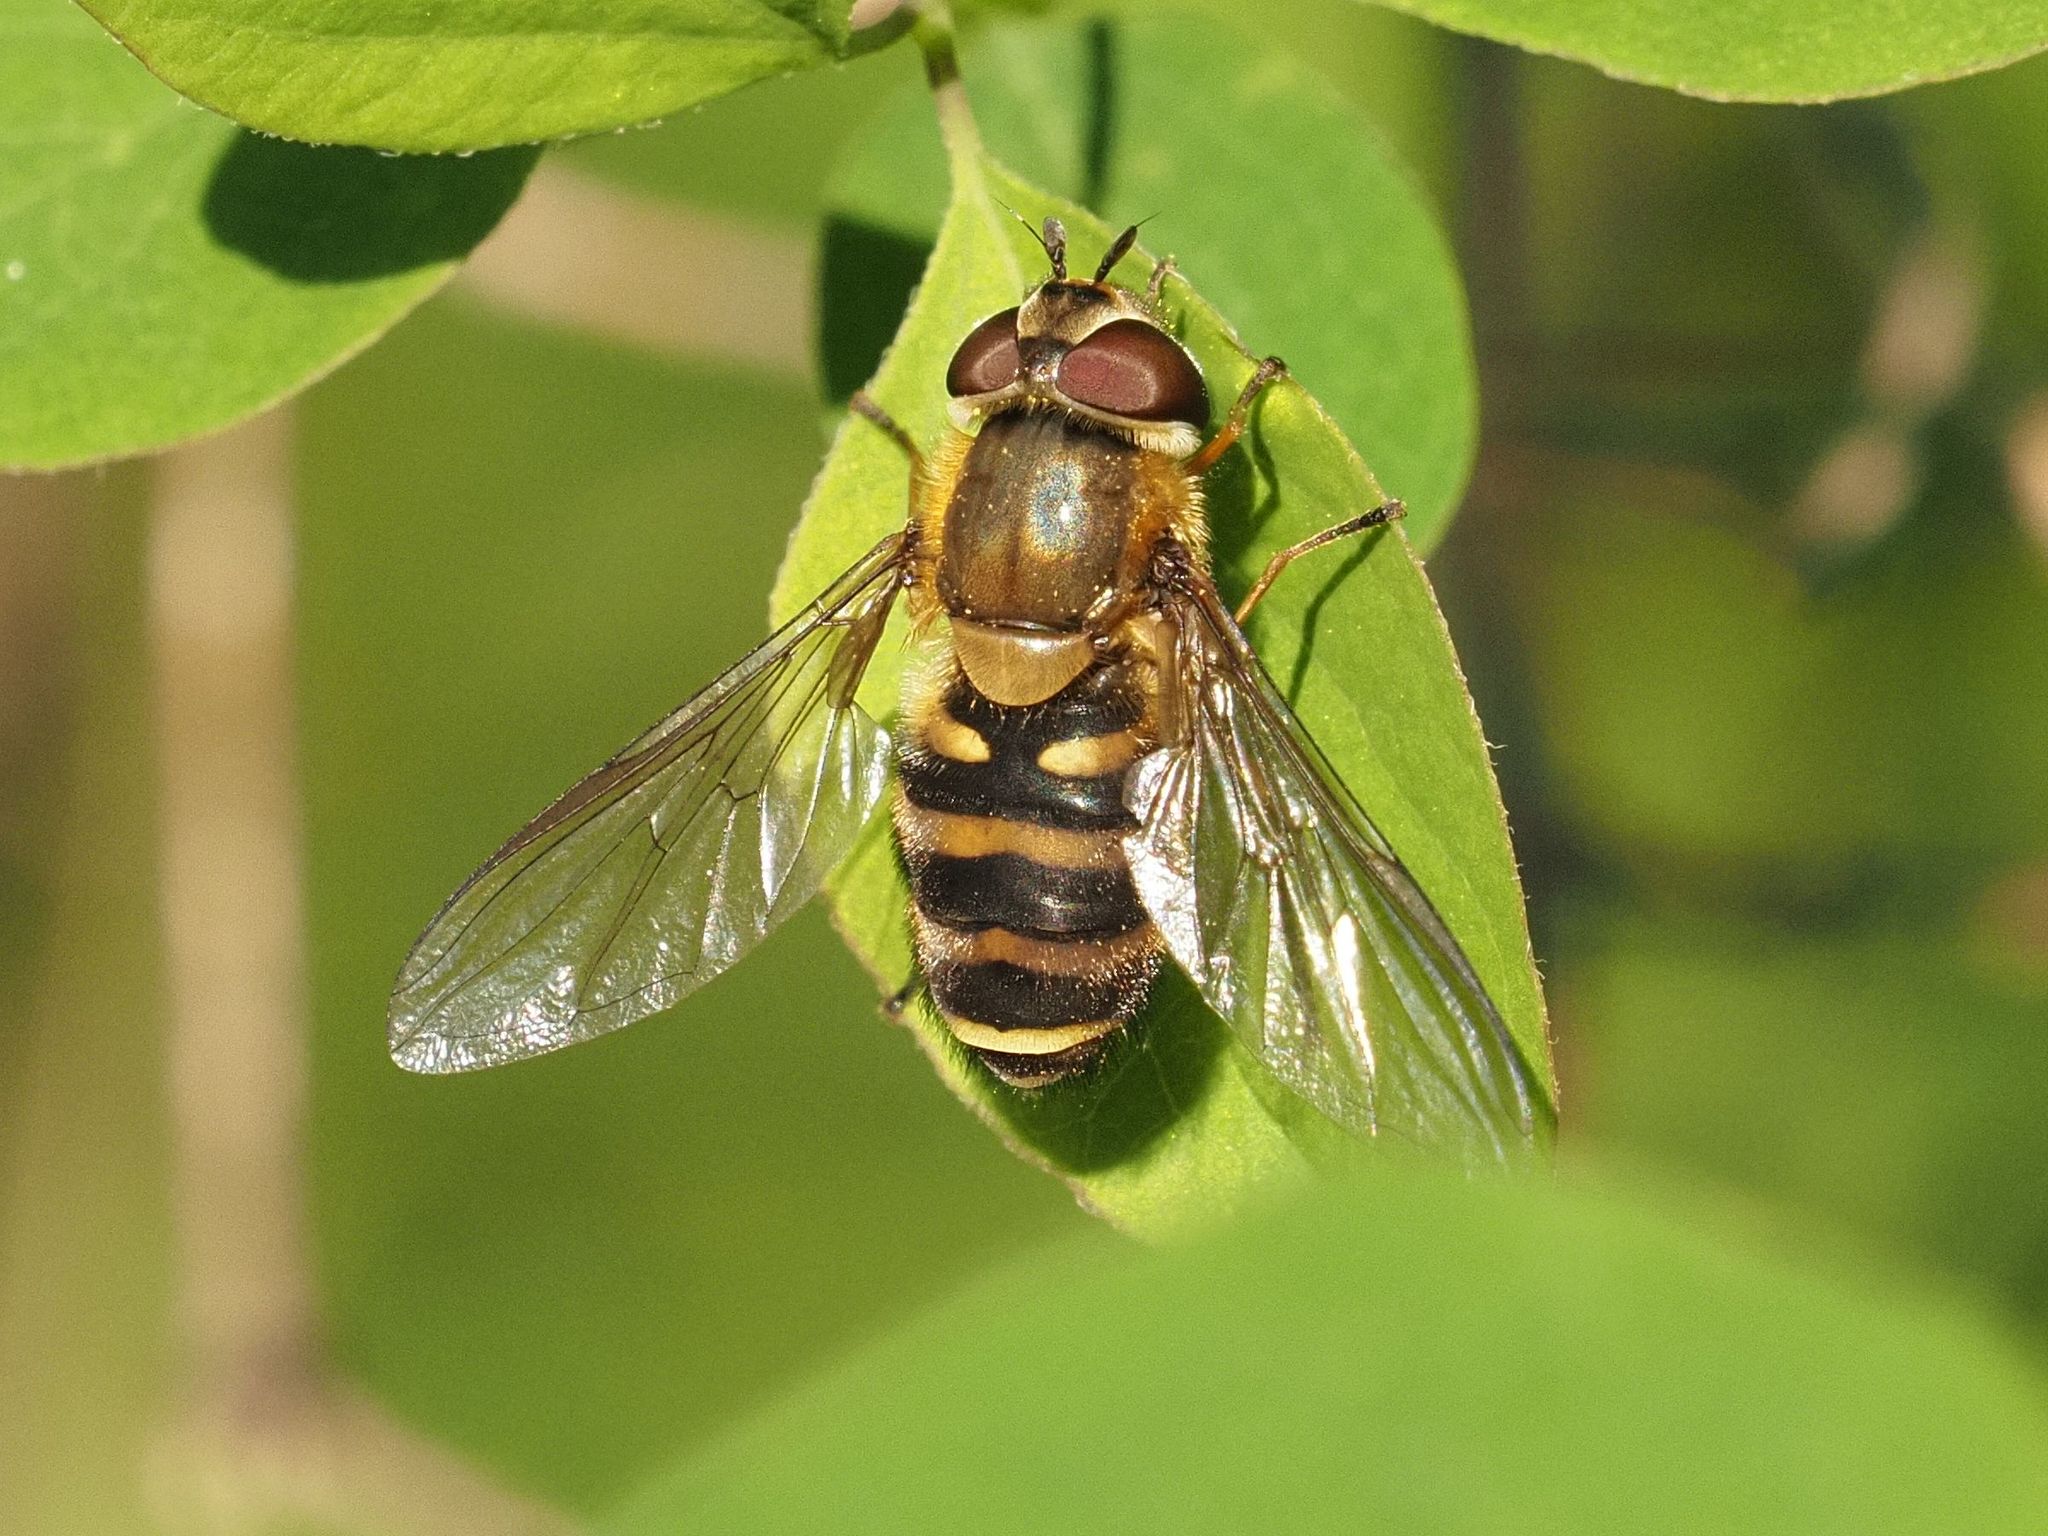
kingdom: Animalia
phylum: Arthropoda
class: Insecta
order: Diptera
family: Syrphidae
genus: Syrphus
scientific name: Syrphus torvus
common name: Hairy-eyed flower fly
